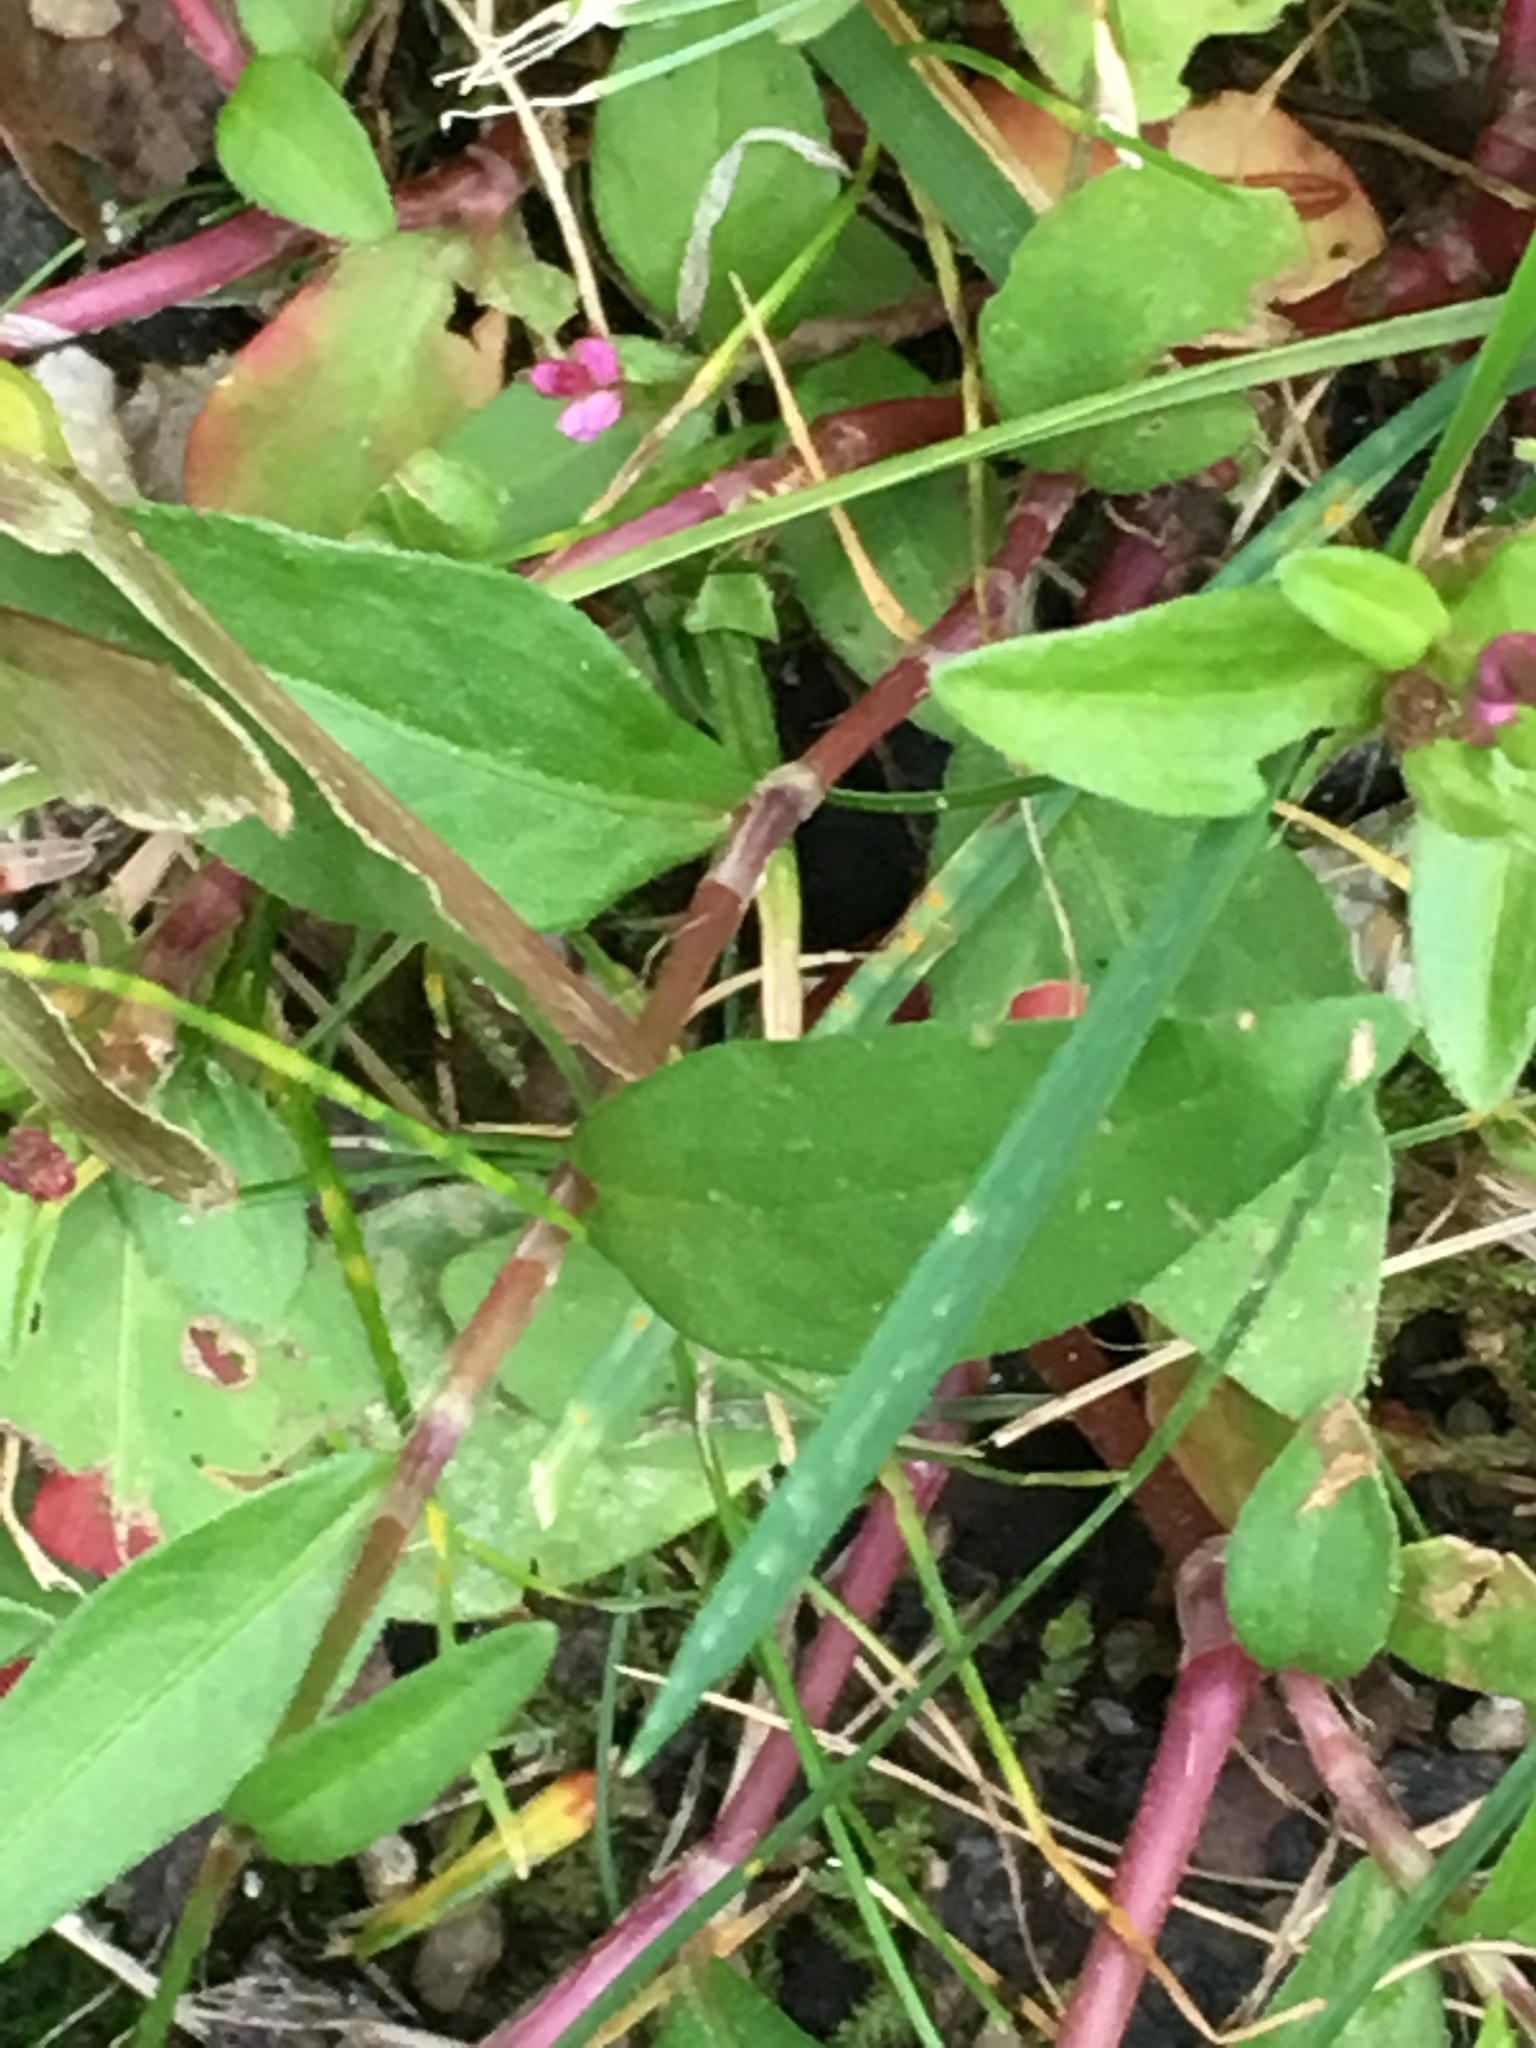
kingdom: Plantae
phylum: Tracheophyta
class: Magnoliopsida
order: Caryophyllales
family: Polygonaceae
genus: Persicaria
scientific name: Persicaria longiseta
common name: Bristly lady's-thumb
